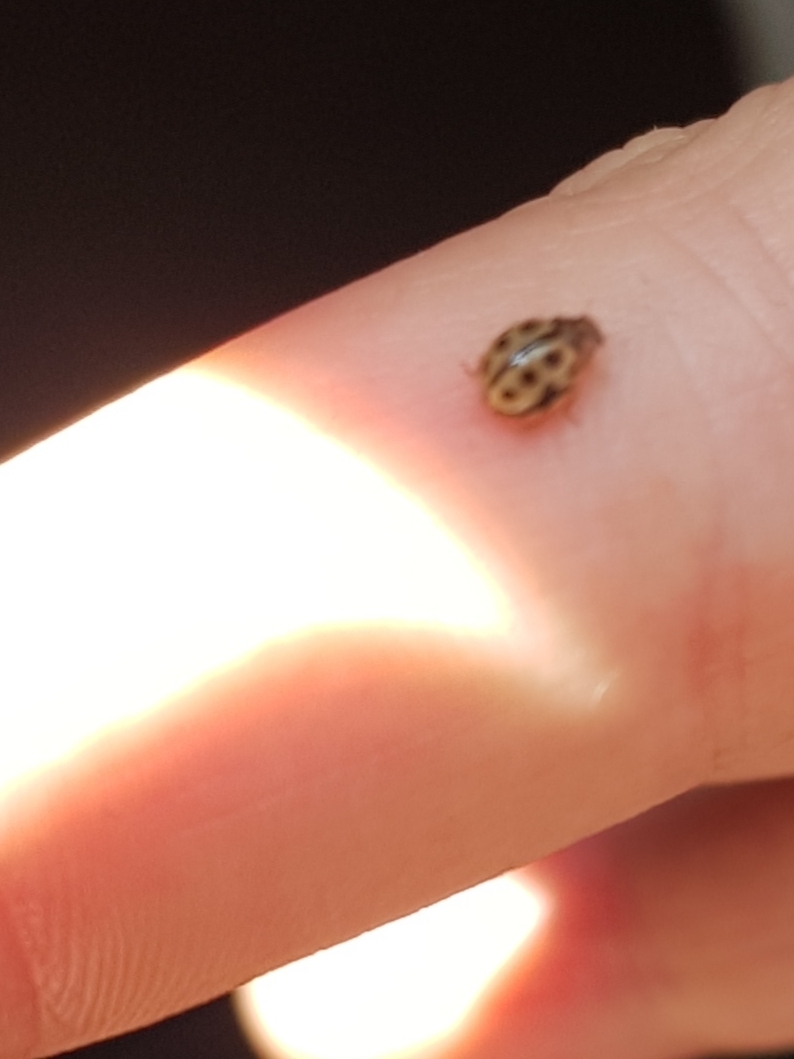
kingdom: Animalia
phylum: Arthropoda
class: Insecta
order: Coleoptera
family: Coccinellidae
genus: Tytthaspis
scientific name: Tytthaspis sedecimpunctata
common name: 16-spot ladybird
